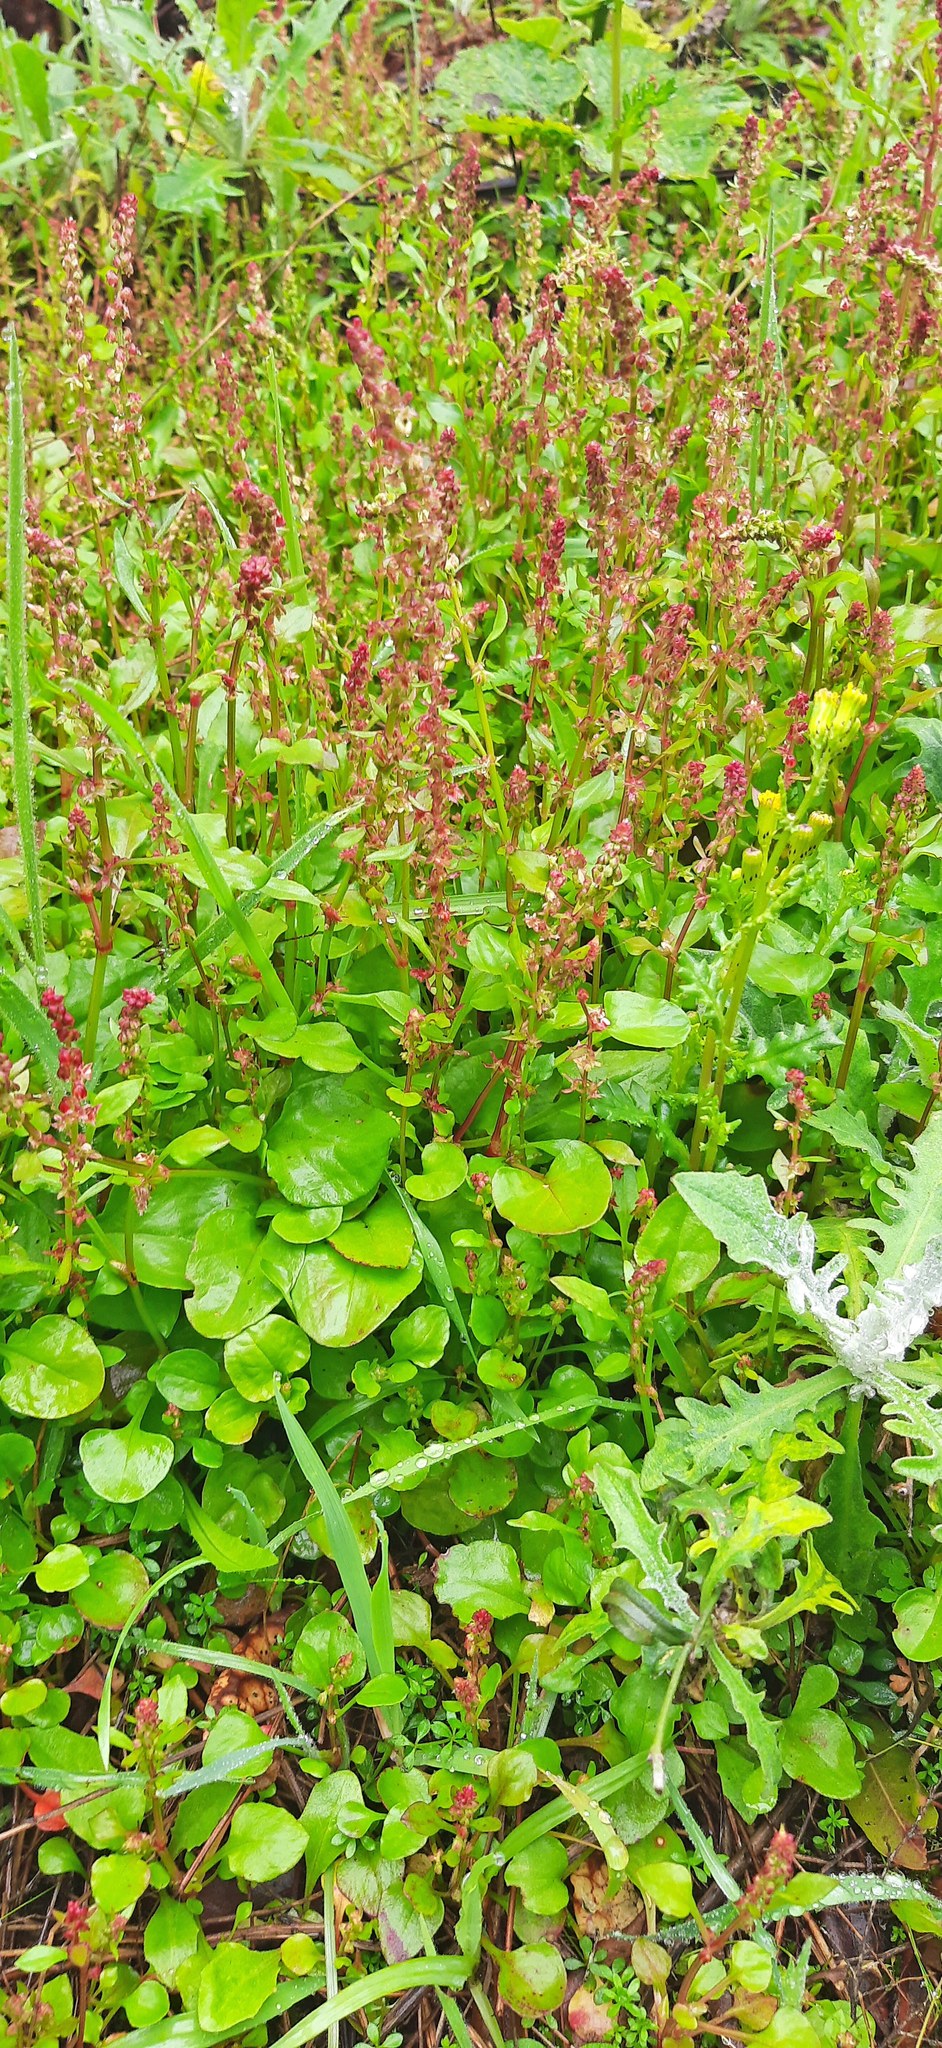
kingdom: Plantae
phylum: Tracheophyta
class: Magnoliopsida
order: Caryophyllales
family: Polygonaceae
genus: Rumex
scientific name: Rumex bucephalophorus
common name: Red dock
